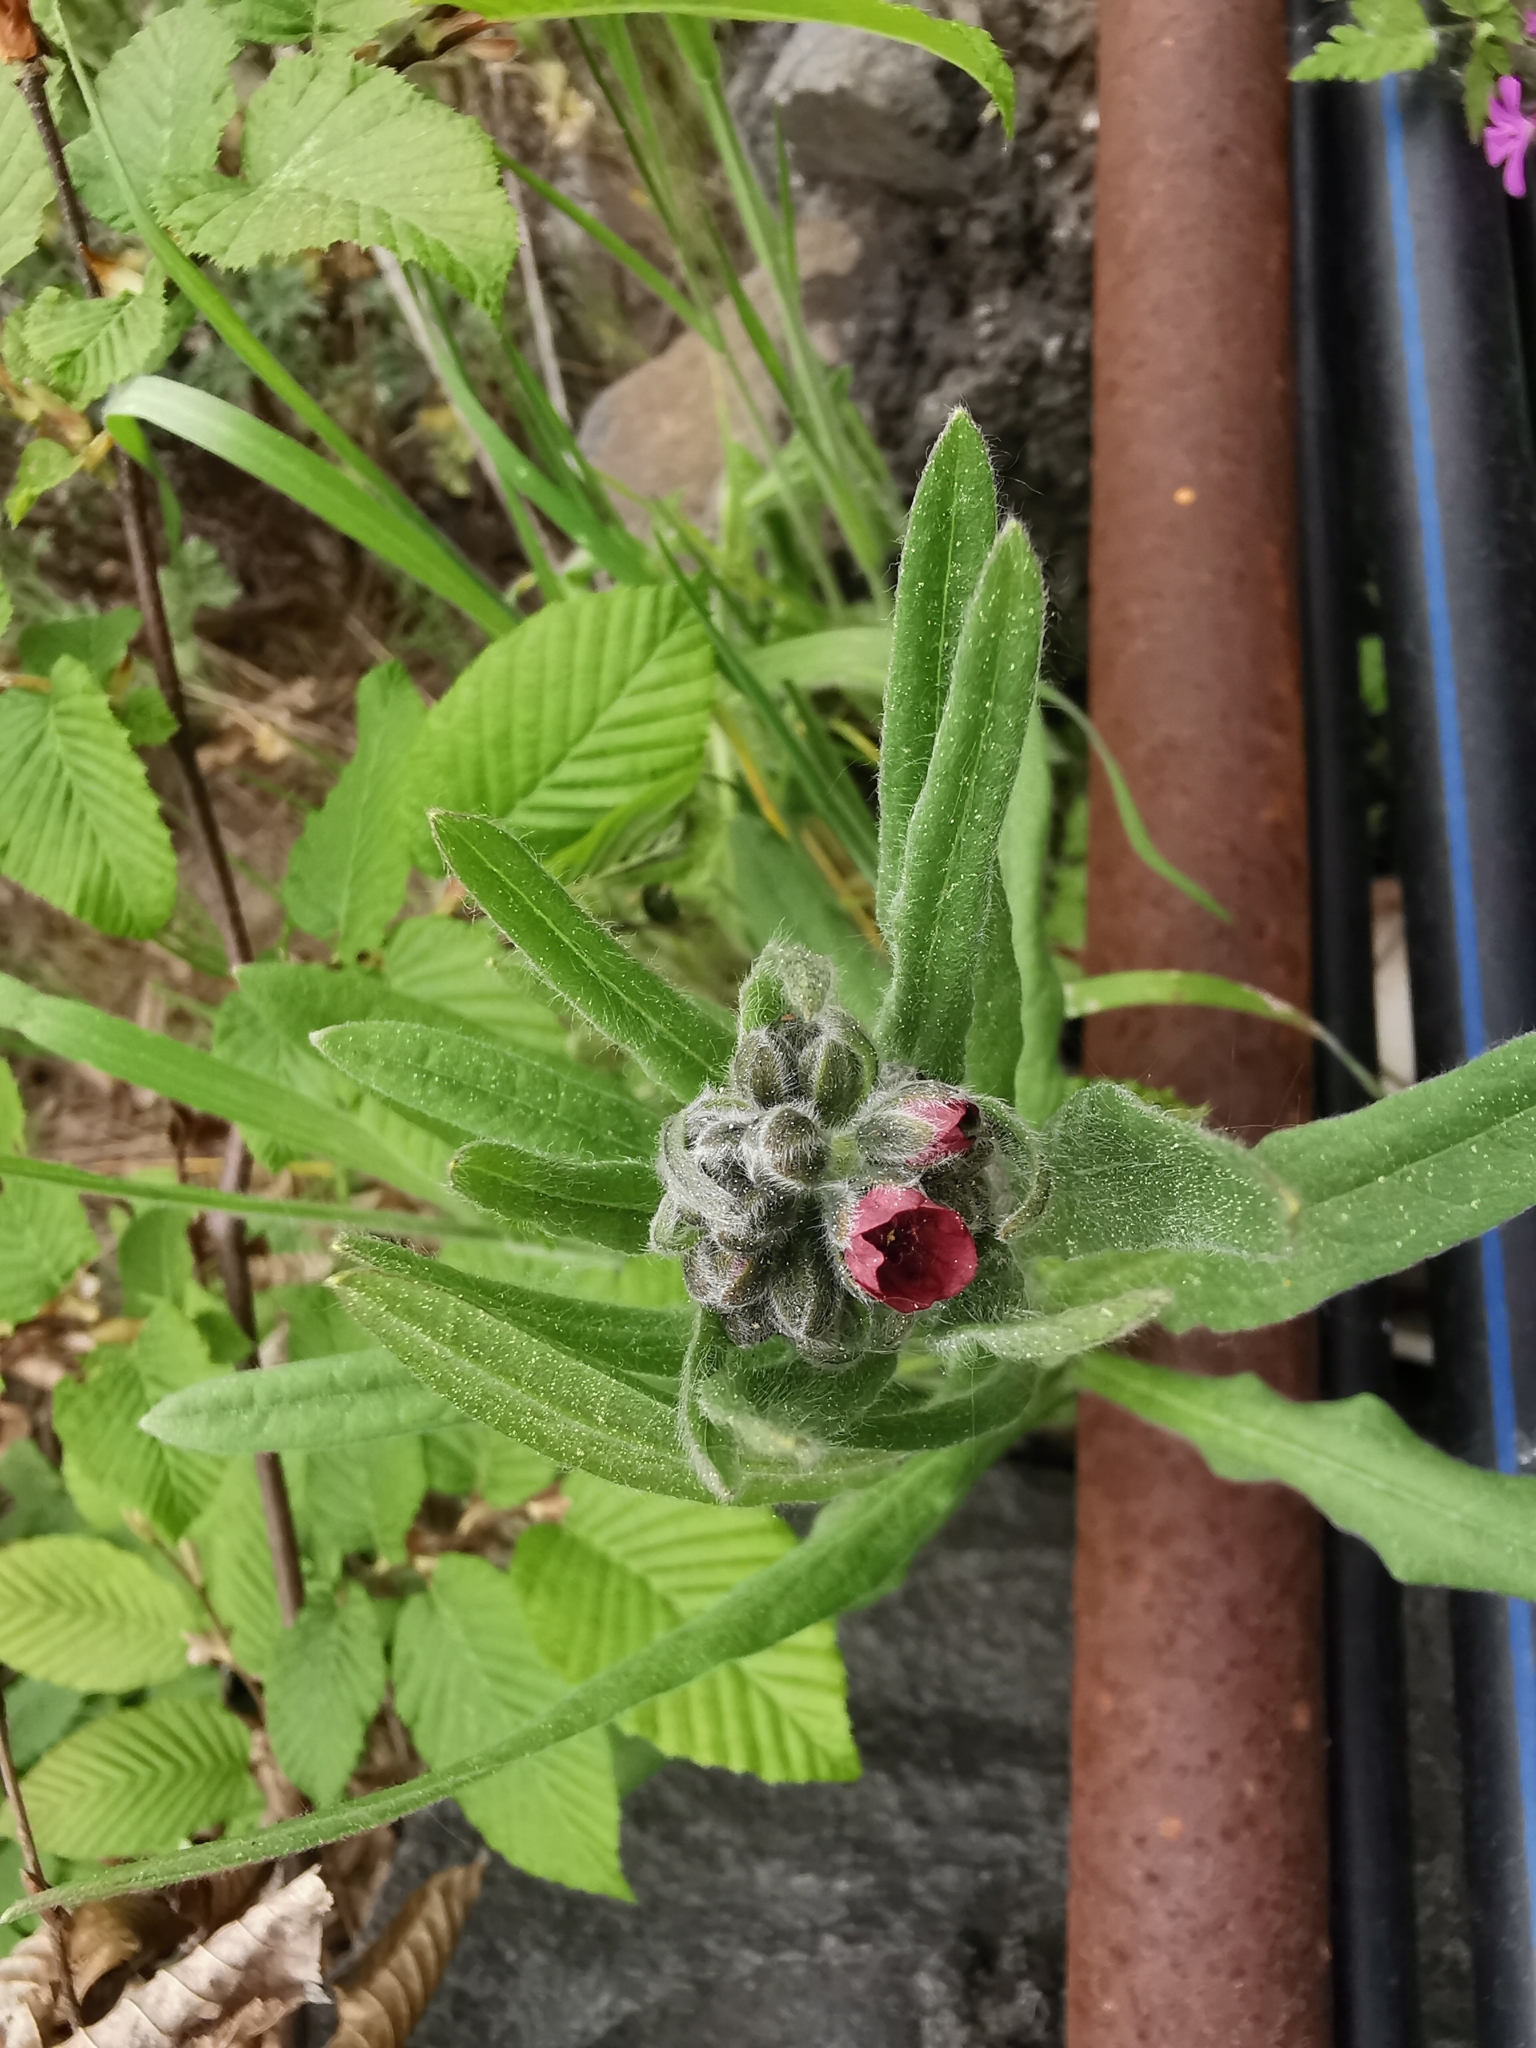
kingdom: Plantae
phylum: Tracheophyta
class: Magnoliopsida
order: Boraginales
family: Boraginaceae
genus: Cynoglossum
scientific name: Cynoglossum officinale
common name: Hound's-tongue
